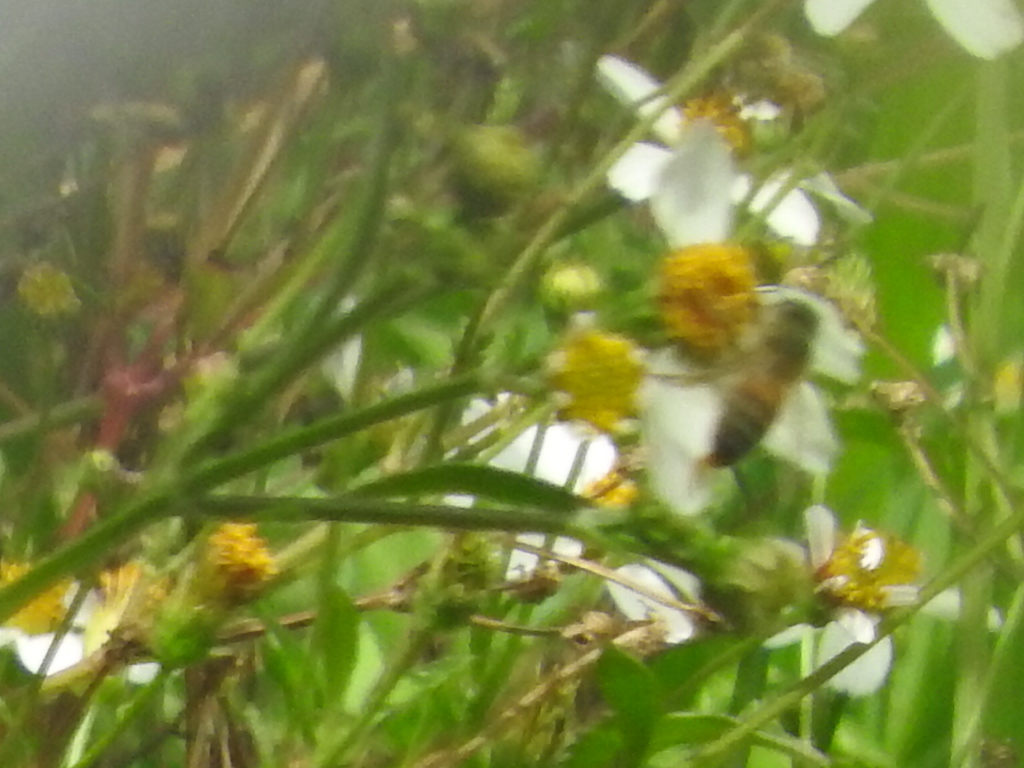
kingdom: Animalia
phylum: Arthropoda
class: Insecta
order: Hymenoptera
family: Apidae
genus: Apis
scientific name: Apis mellifera
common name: Honey bee
